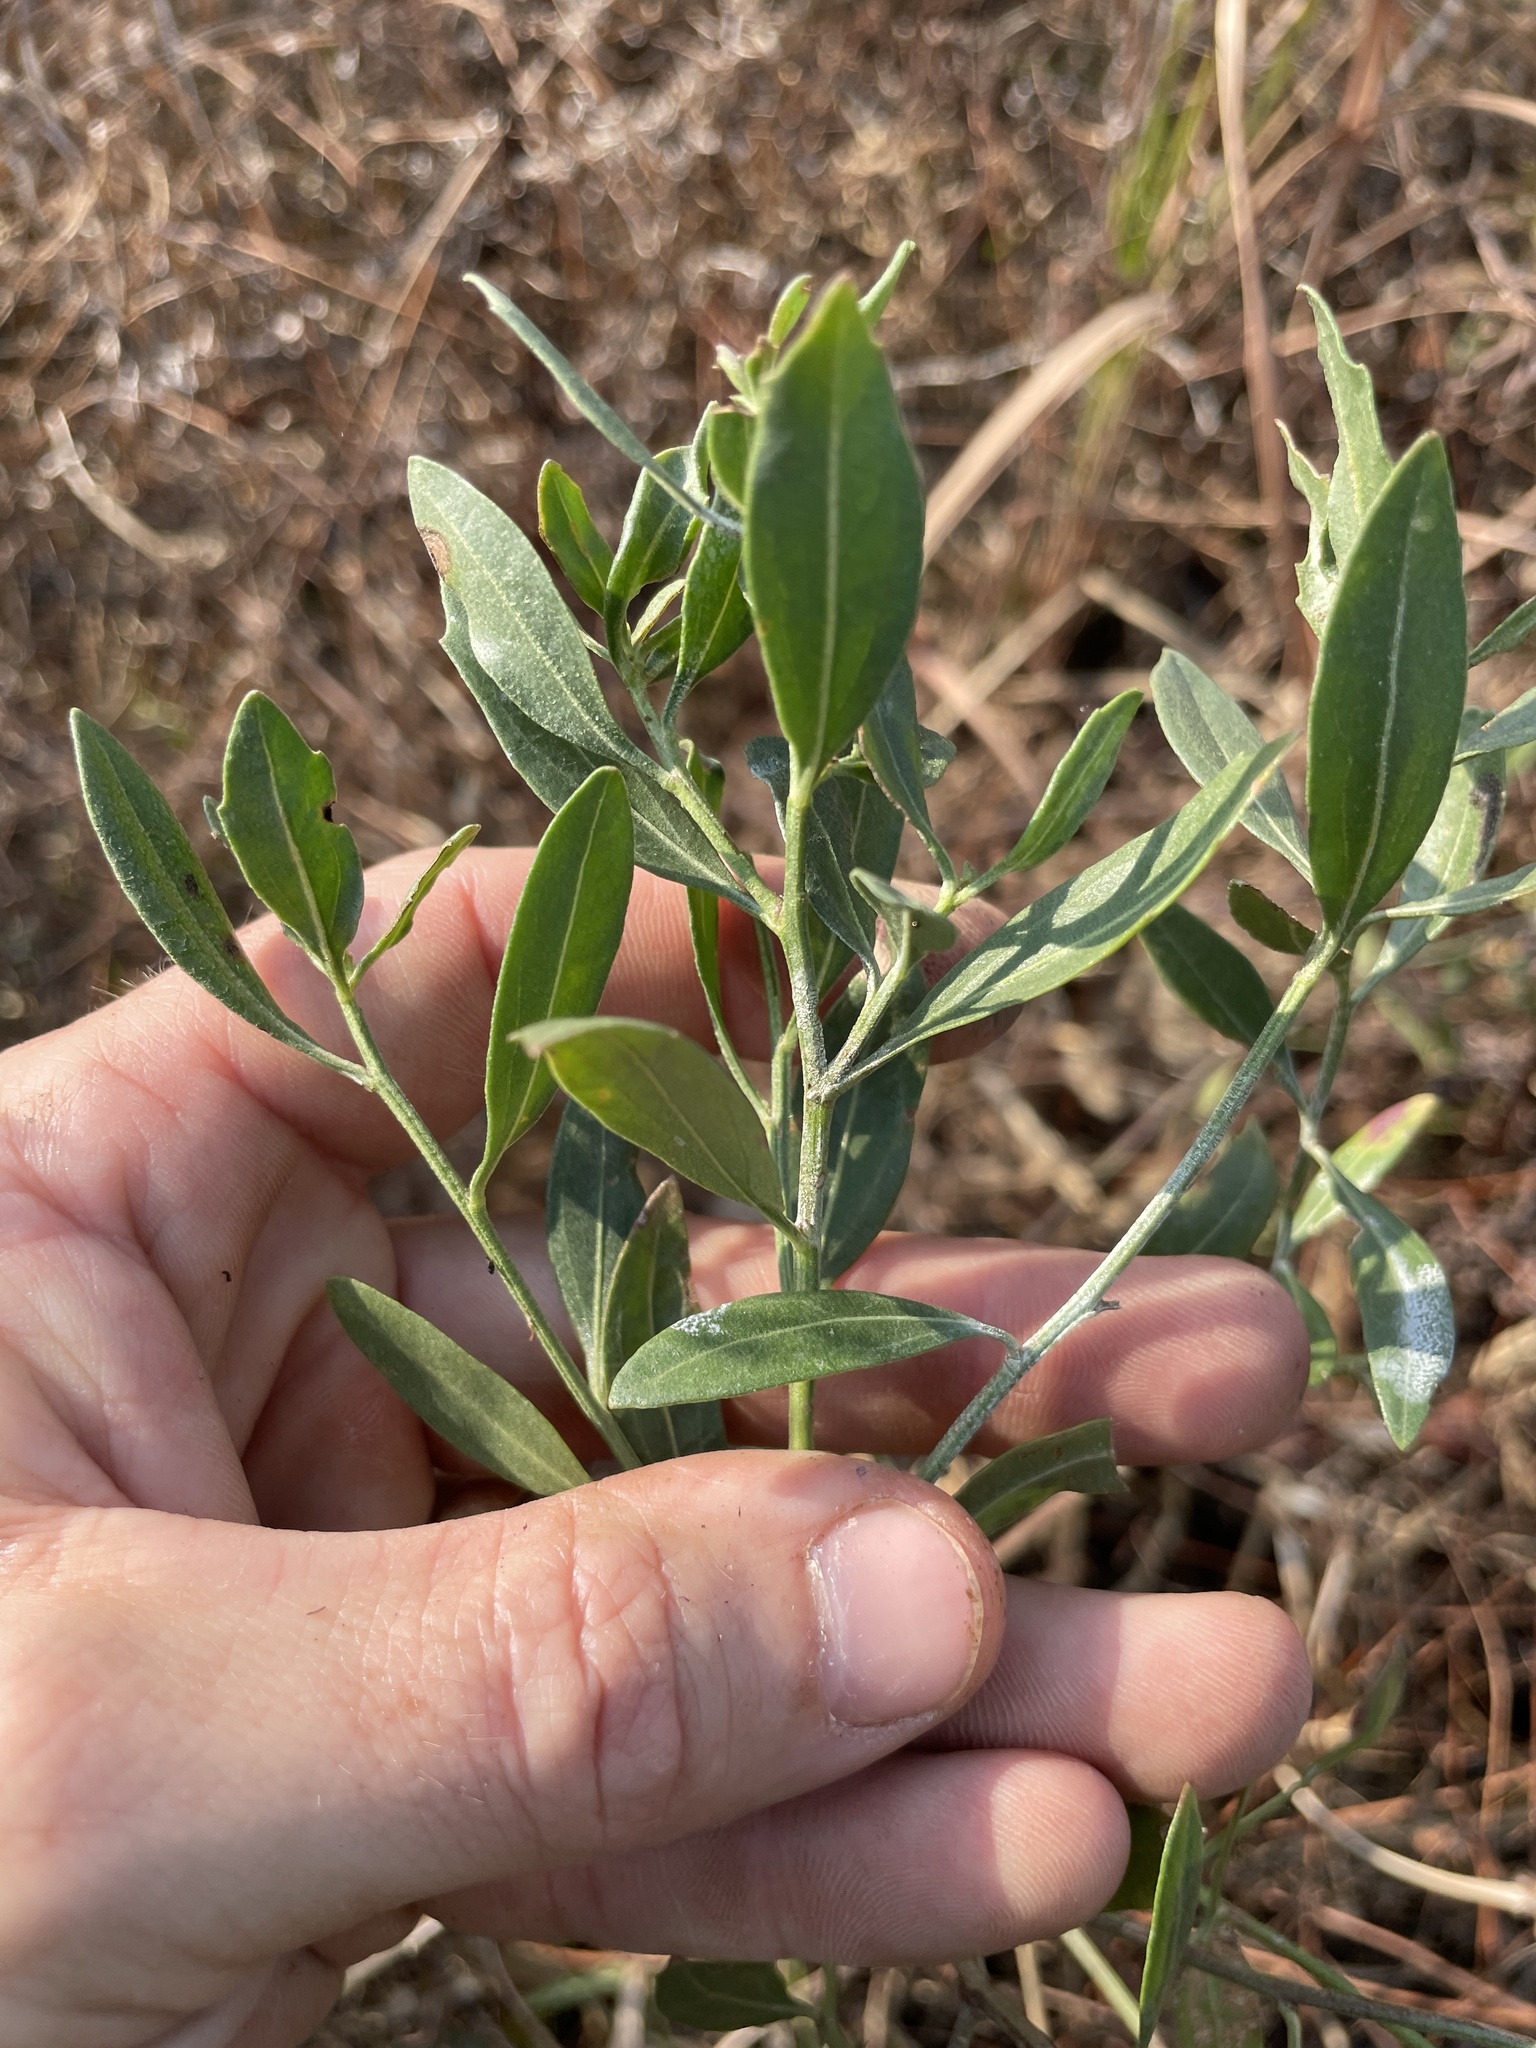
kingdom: Plantae
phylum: Tracheophyta
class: Magnoliopsida
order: Asterales
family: Asteraceae
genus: Baccharis
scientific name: Baccharis halimifolia
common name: Eastern baccharis
